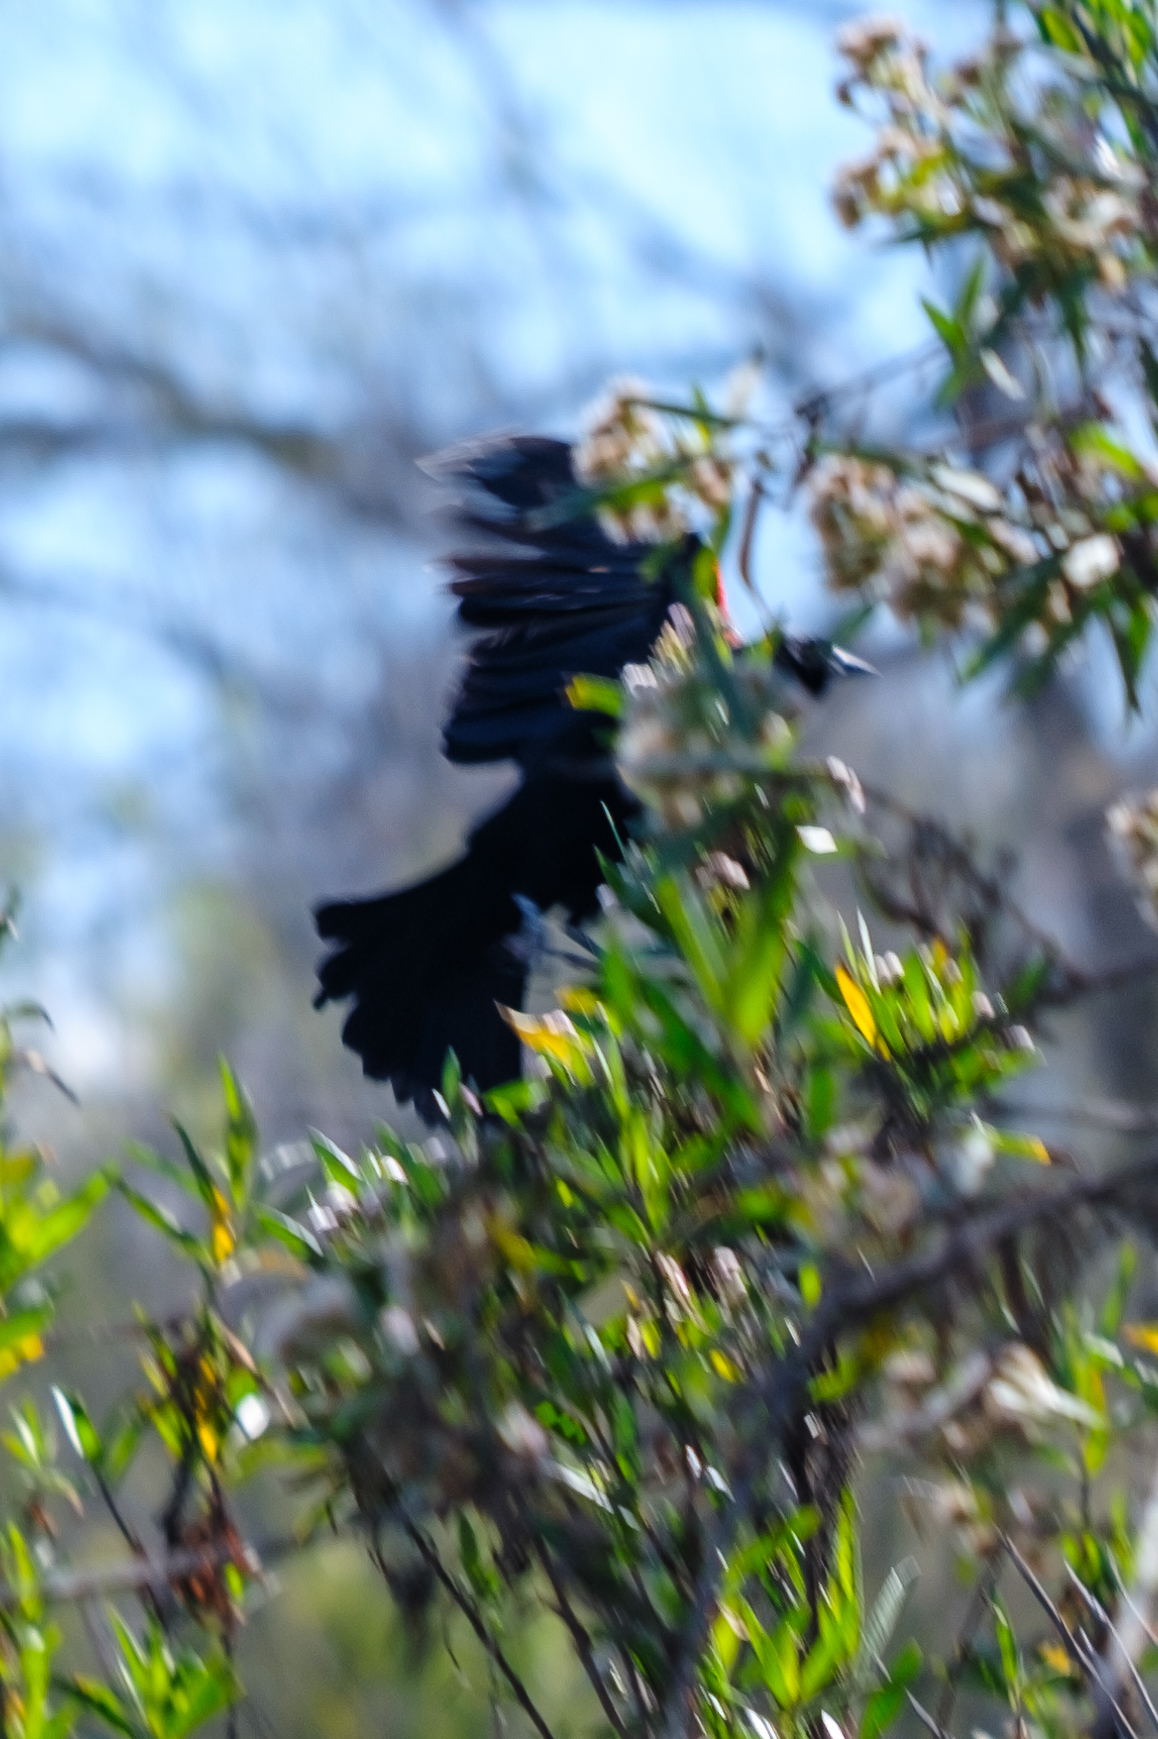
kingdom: Animalia
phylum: Chordata
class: Aves
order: Passeriformes
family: Icteridae
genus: Agelaius
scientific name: Agelaius phoeniceus
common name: Red-winged blackbird
